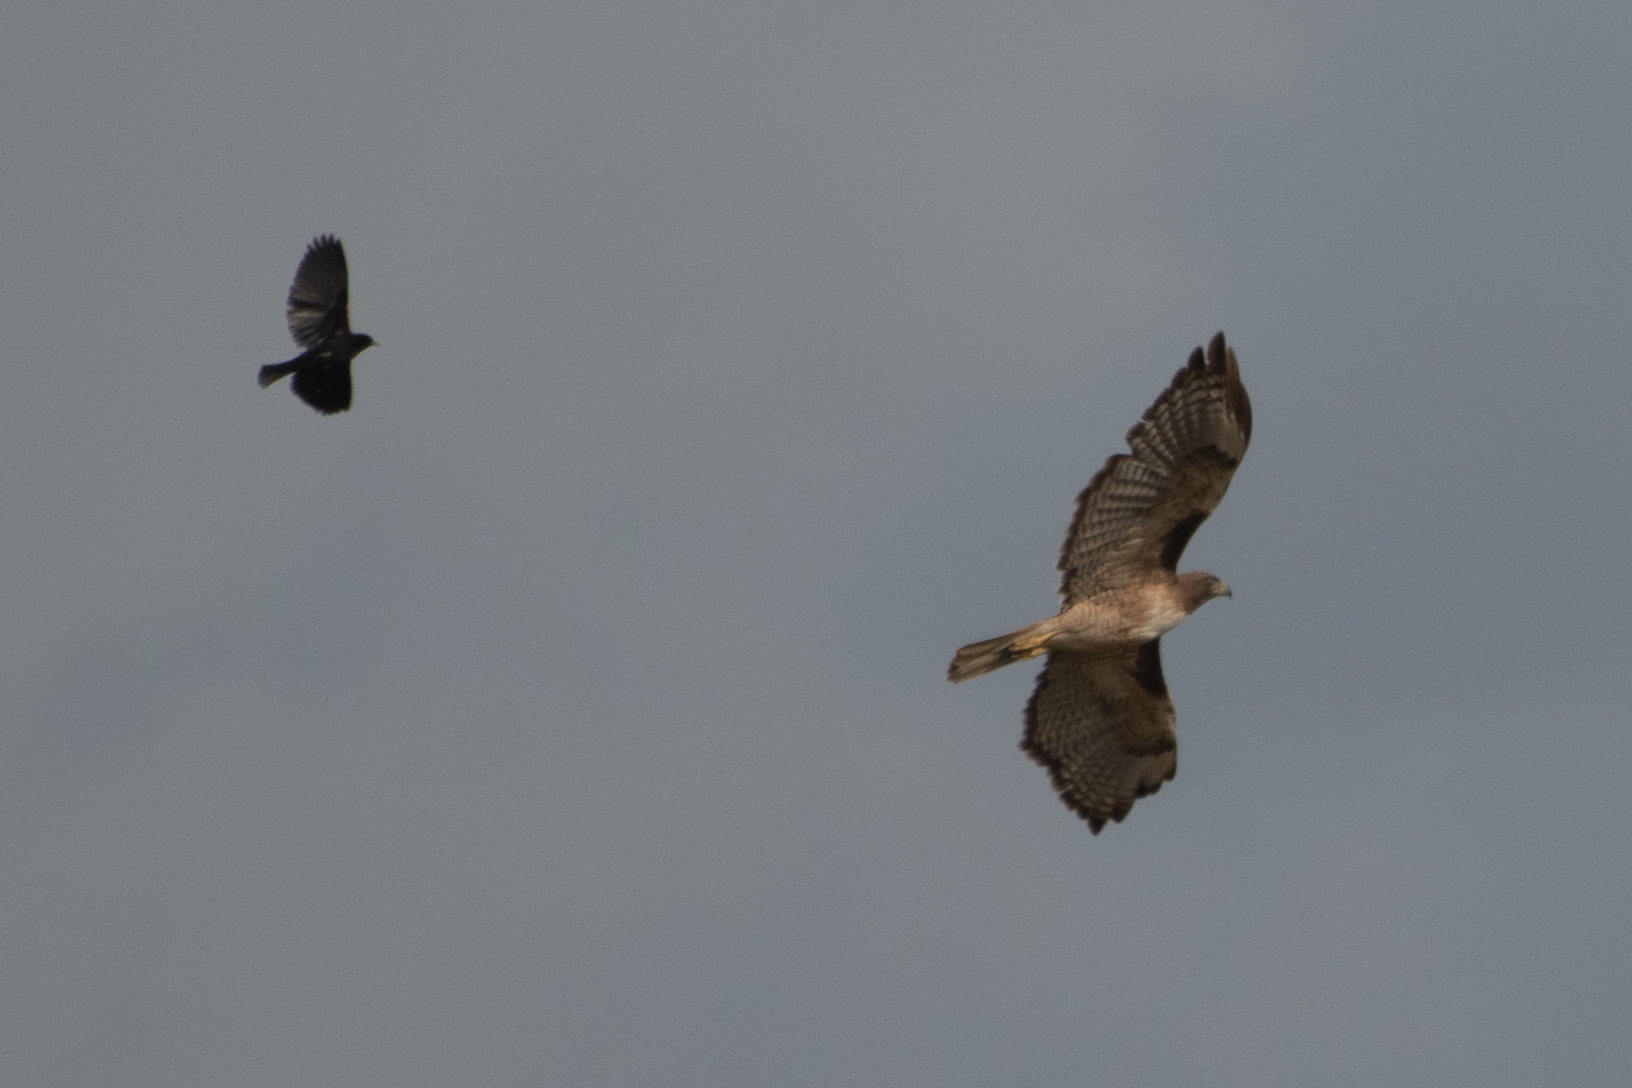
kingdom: Animalia
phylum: Chordata
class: Aves
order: Accipitriformes
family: Accipitridae
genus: Buteo
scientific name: Buteo jamaicensis
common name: Red-tailed hawk
